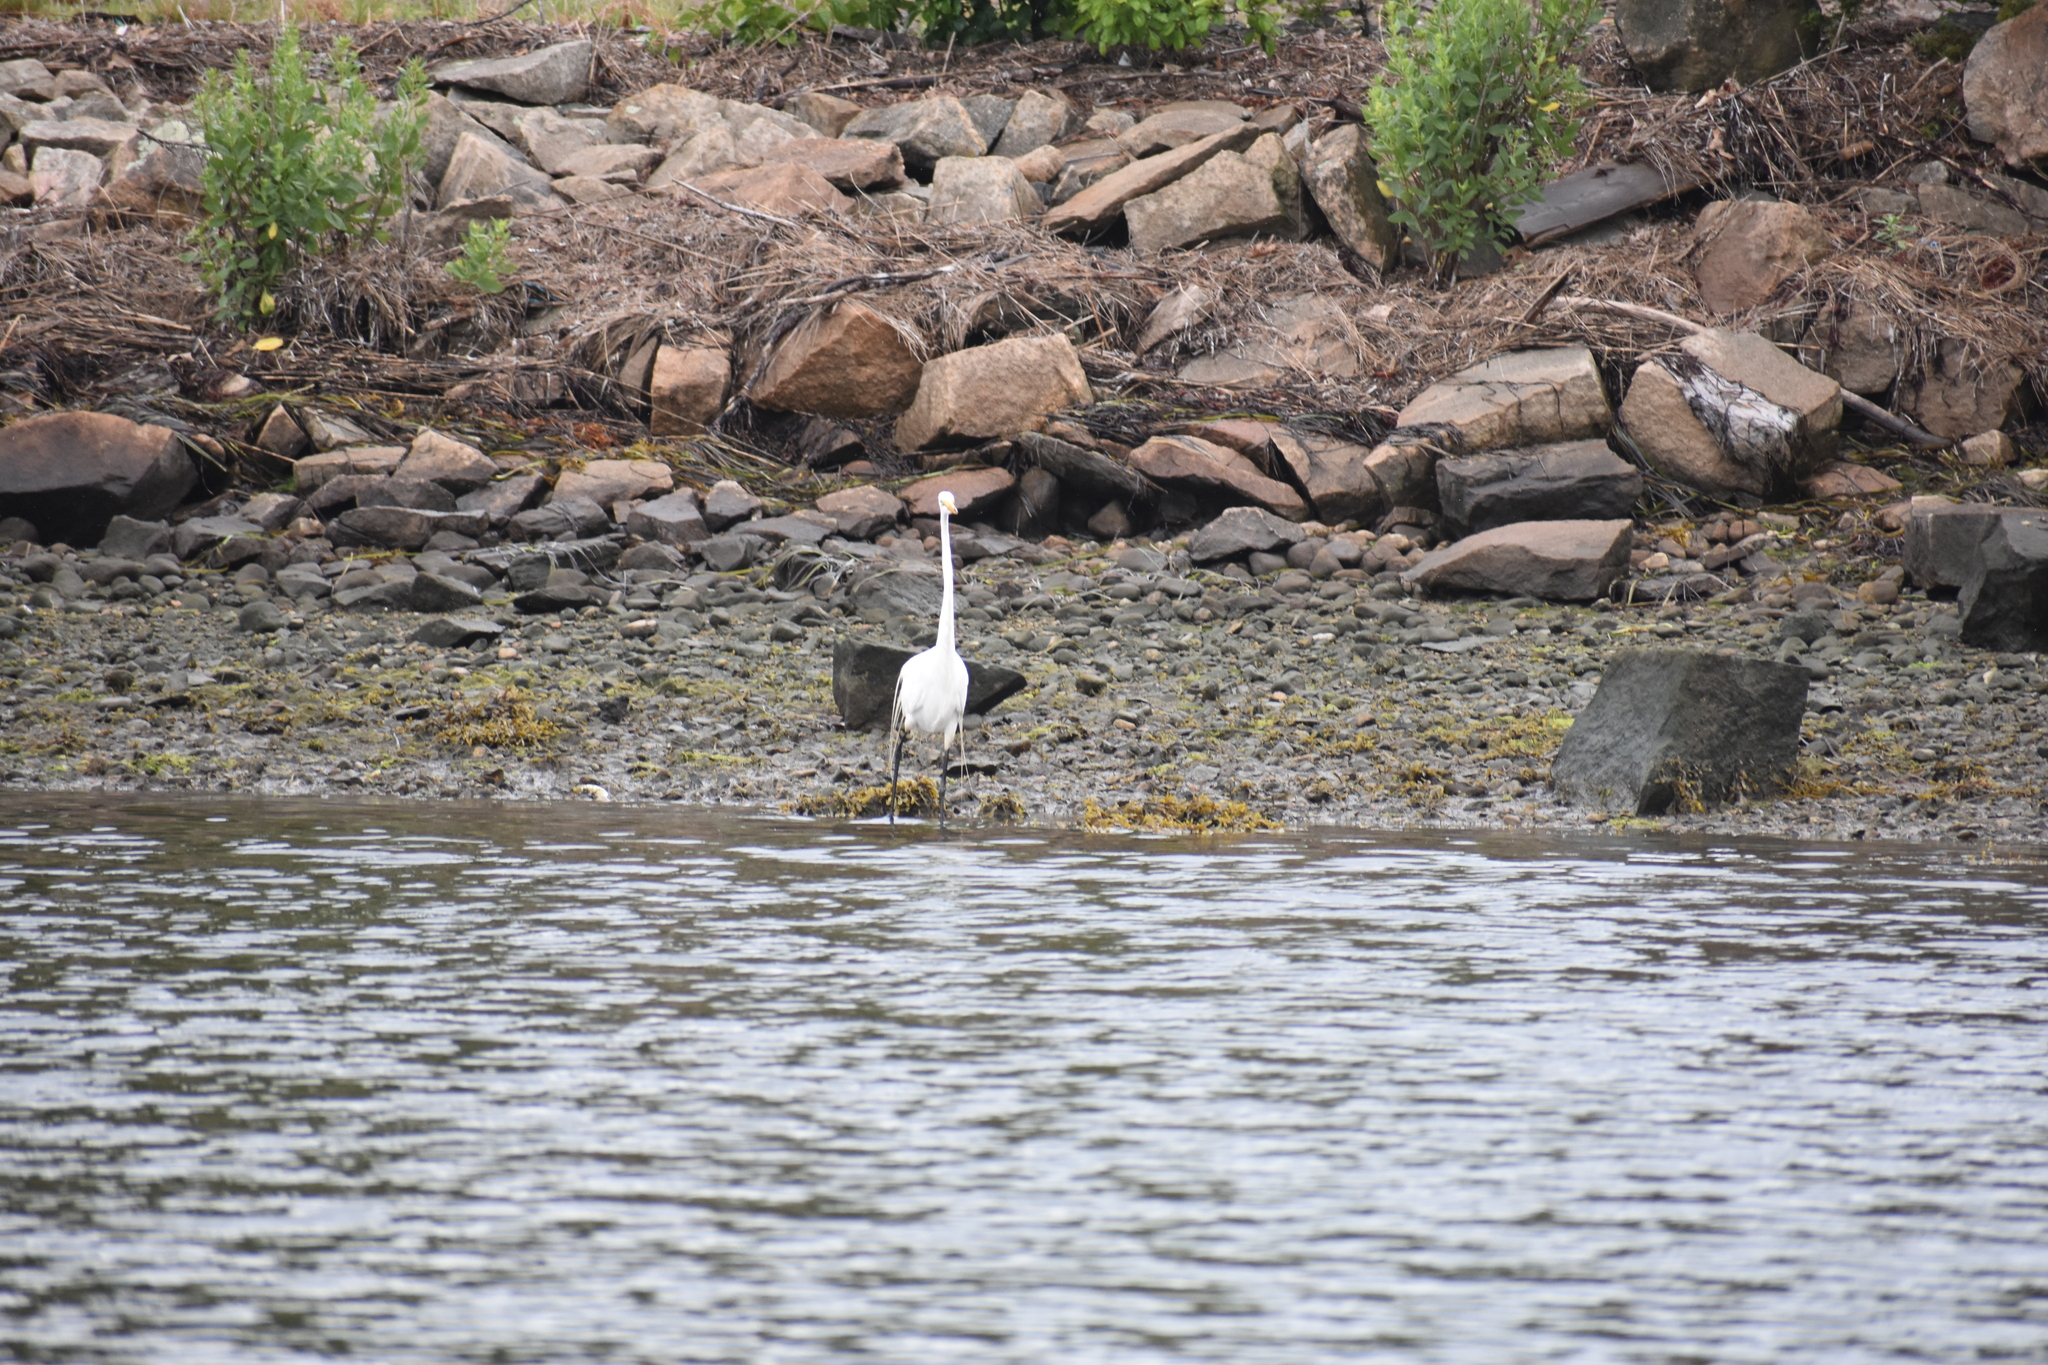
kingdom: Animalia
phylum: Chordata
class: Aves
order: Pelecaniformes
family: Ardeidae
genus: Ardea
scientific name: Ardea alba
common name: Great egret
